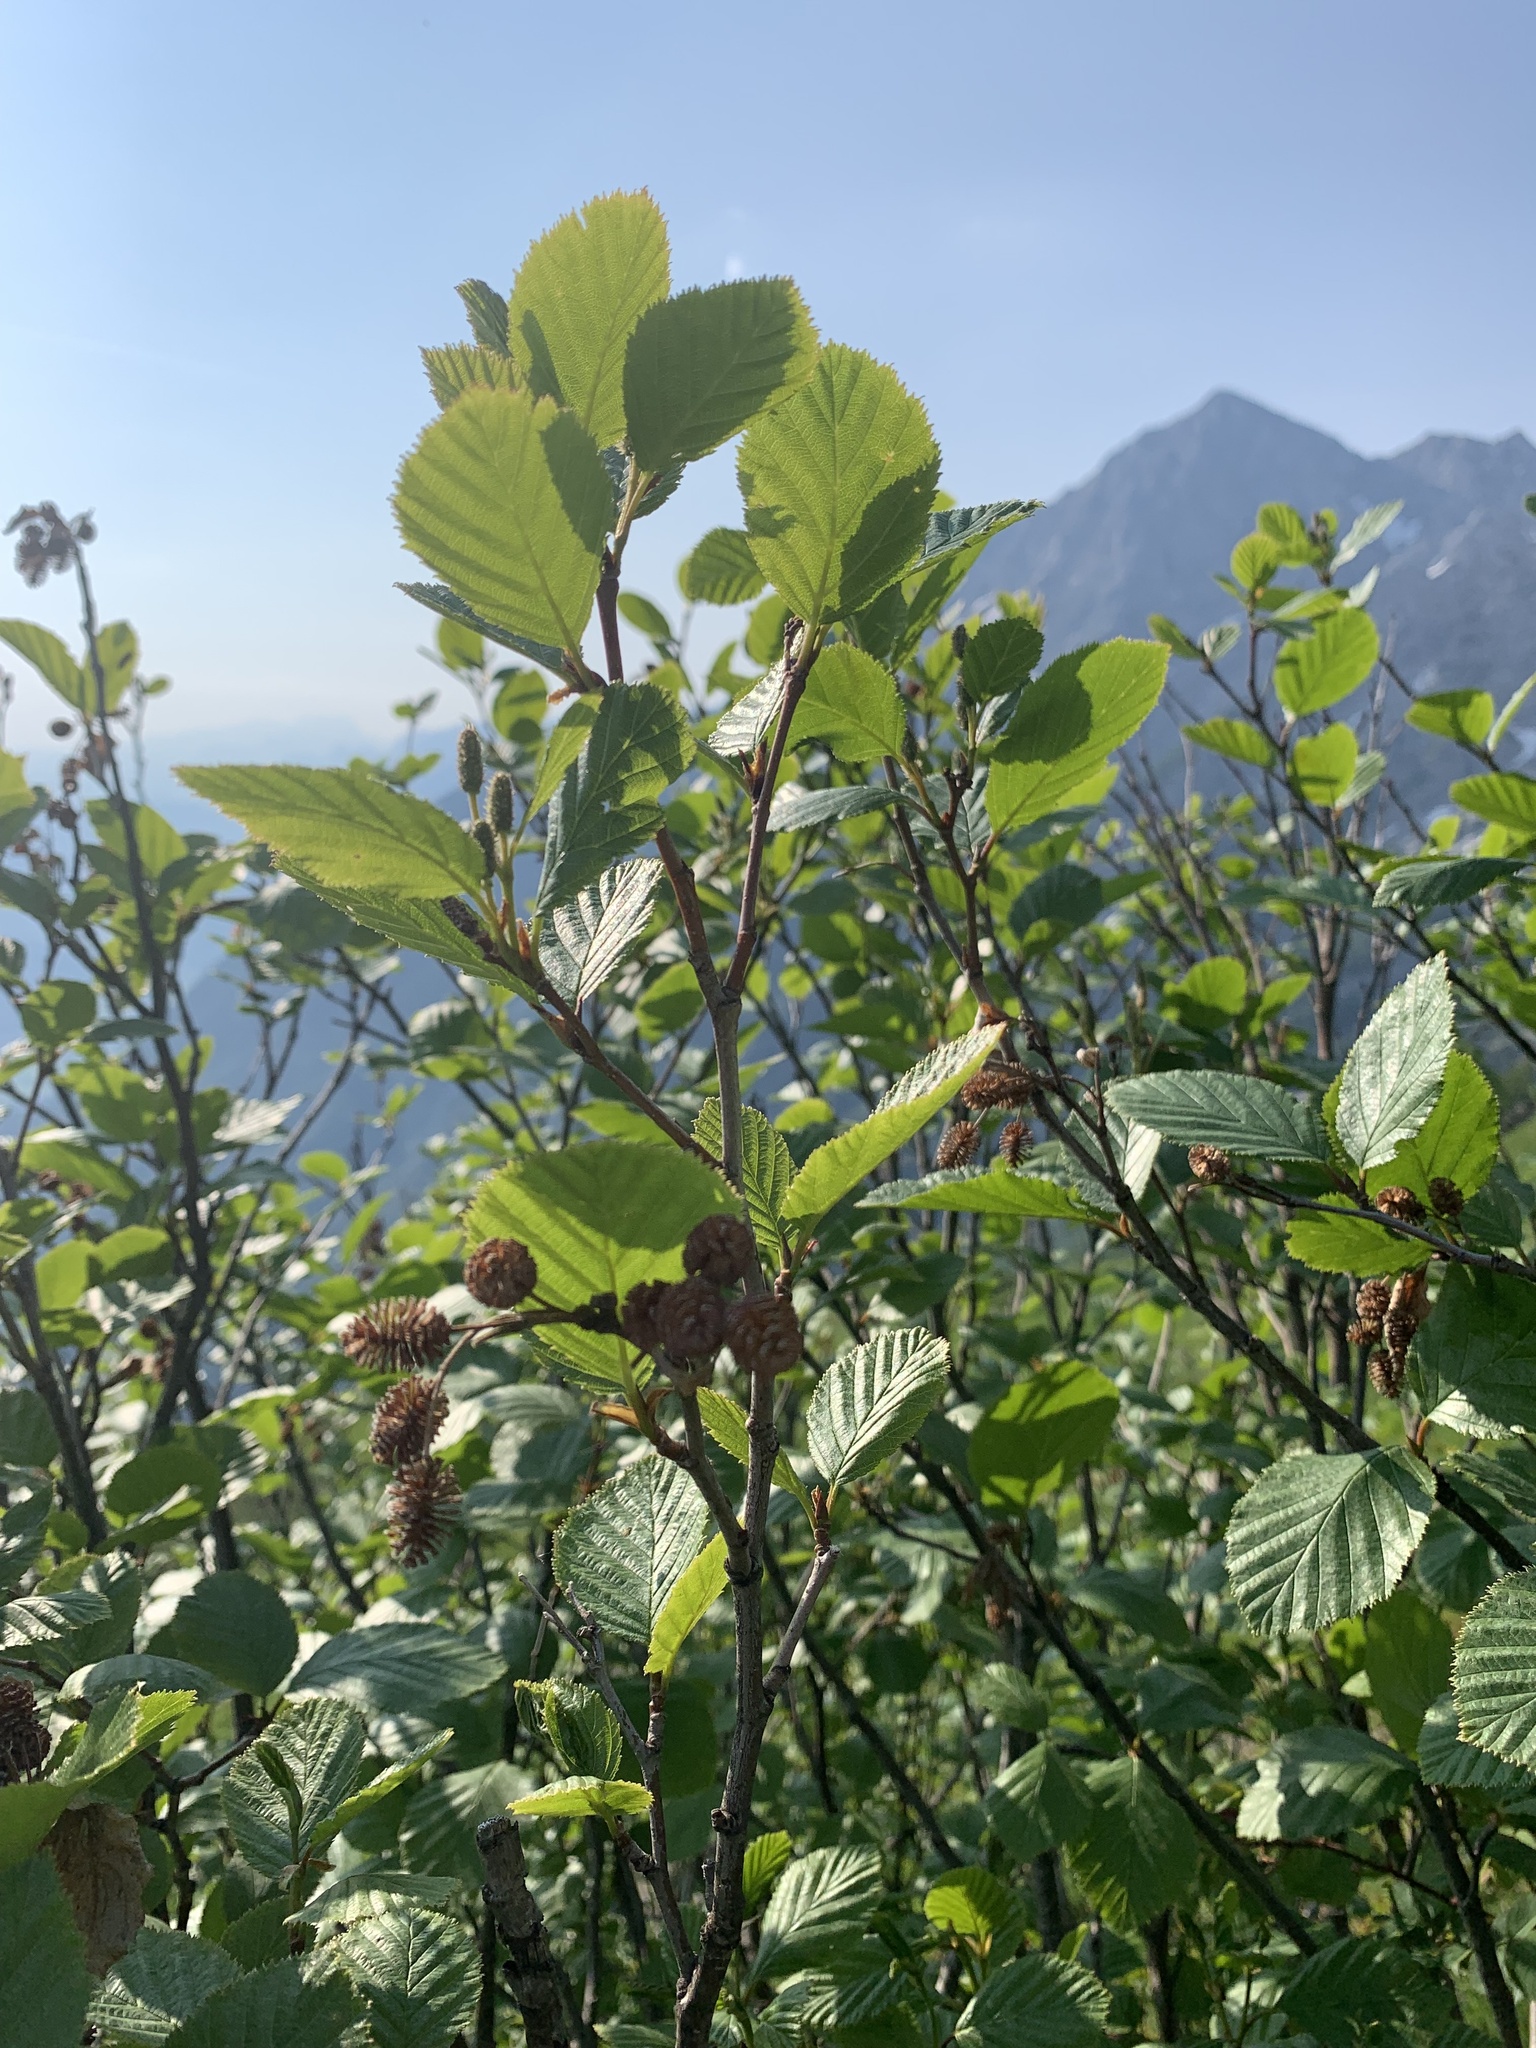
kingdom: Plantae
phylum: Tracheophyta
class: Magnoliopsida
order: Fagales
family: Betulaceae
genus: Alnus
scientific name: Alnus alnobetula
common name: Green alder
